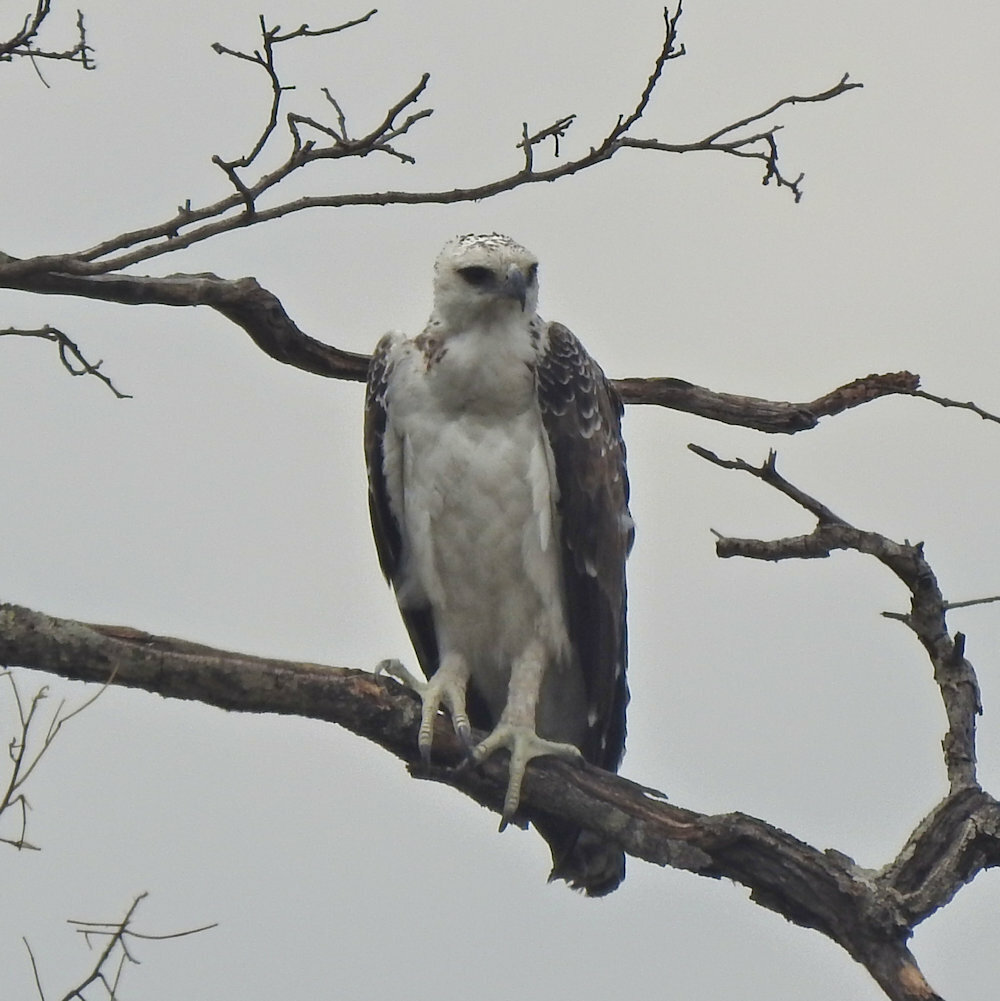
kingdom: Animalia
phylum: Chordata
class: Aves
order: Accipitriformes
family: Accipitridae
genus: Polemaetus
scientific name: Polemaetus bellicosus
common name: Martial eagle
